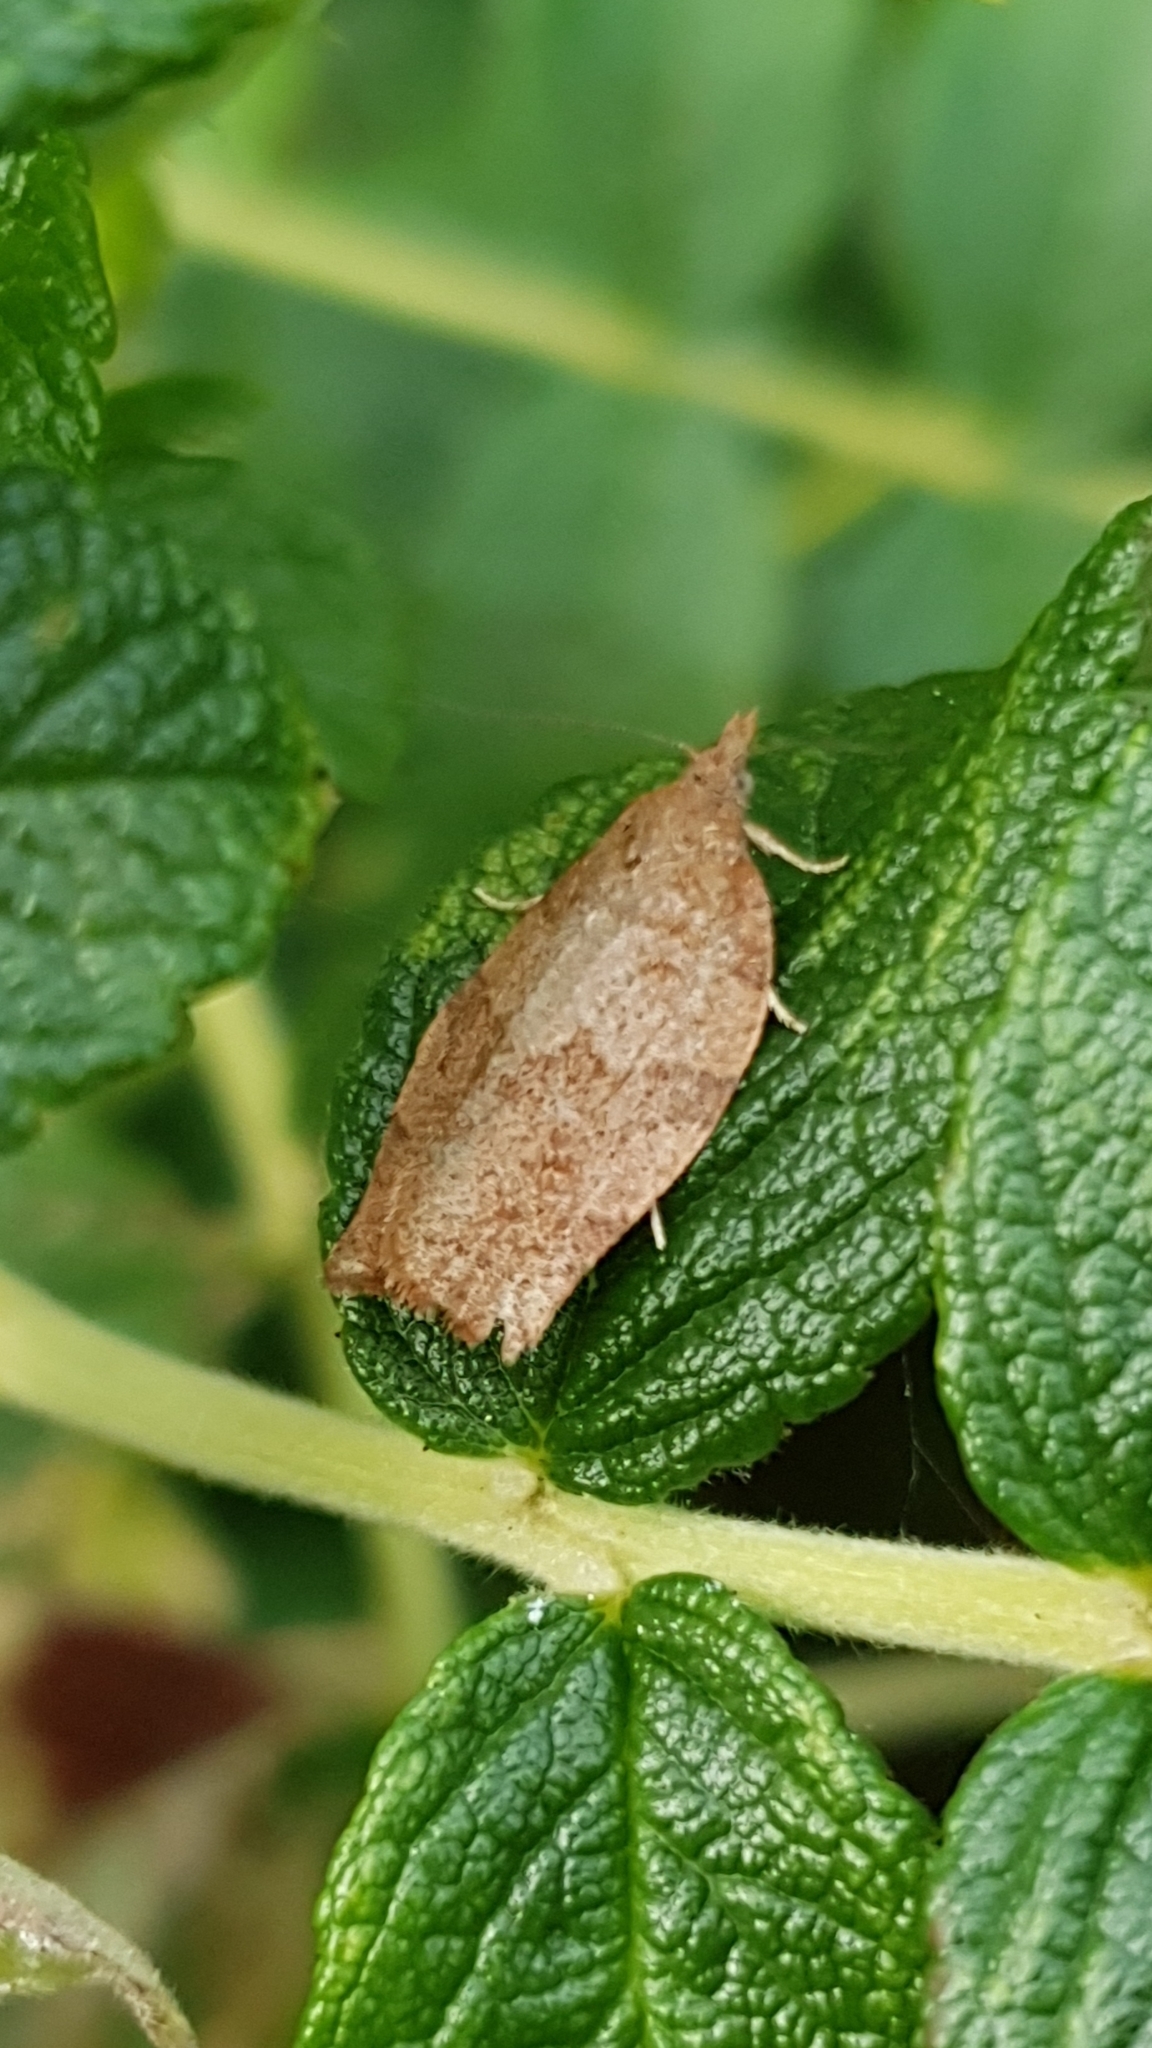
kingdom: Animalia
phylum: Arthropoda
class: Insecta
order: Lepidoptera
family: Tortricidae
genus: Pandemis
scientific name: Pandemis heparana
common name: Dark fruit-tree tortrix
